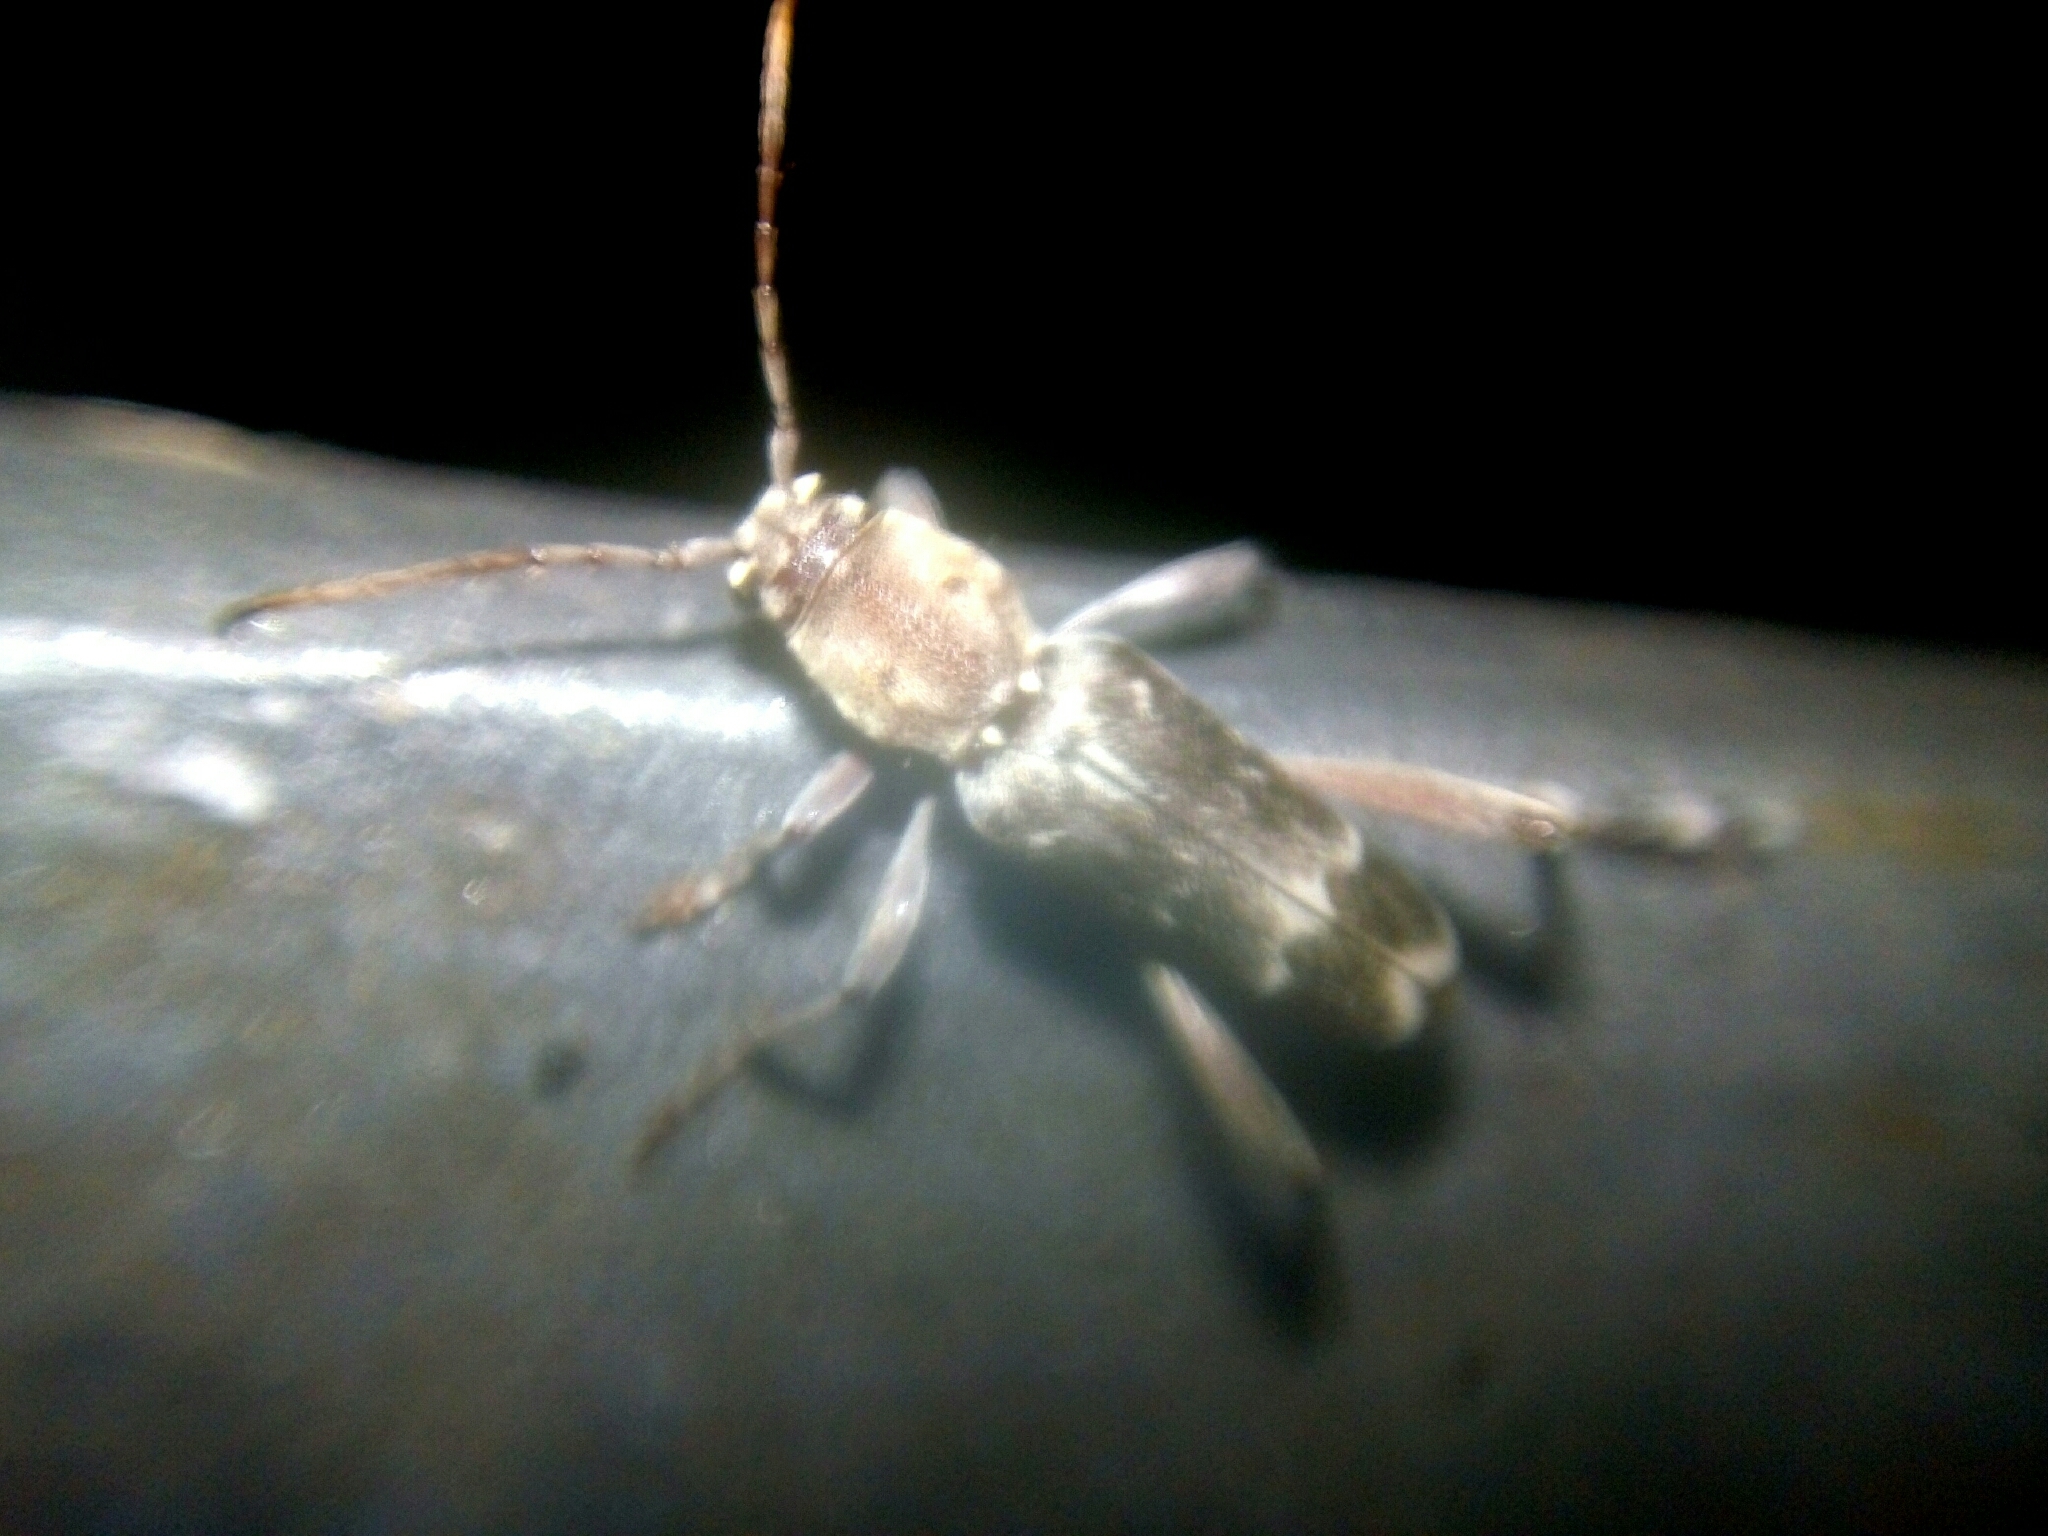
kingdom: Animalia
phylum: Arthropoda
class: Insecta
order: Coleoptera
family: Cerambycidae
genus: Xylotrechus
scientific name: Xylotrechus smei
